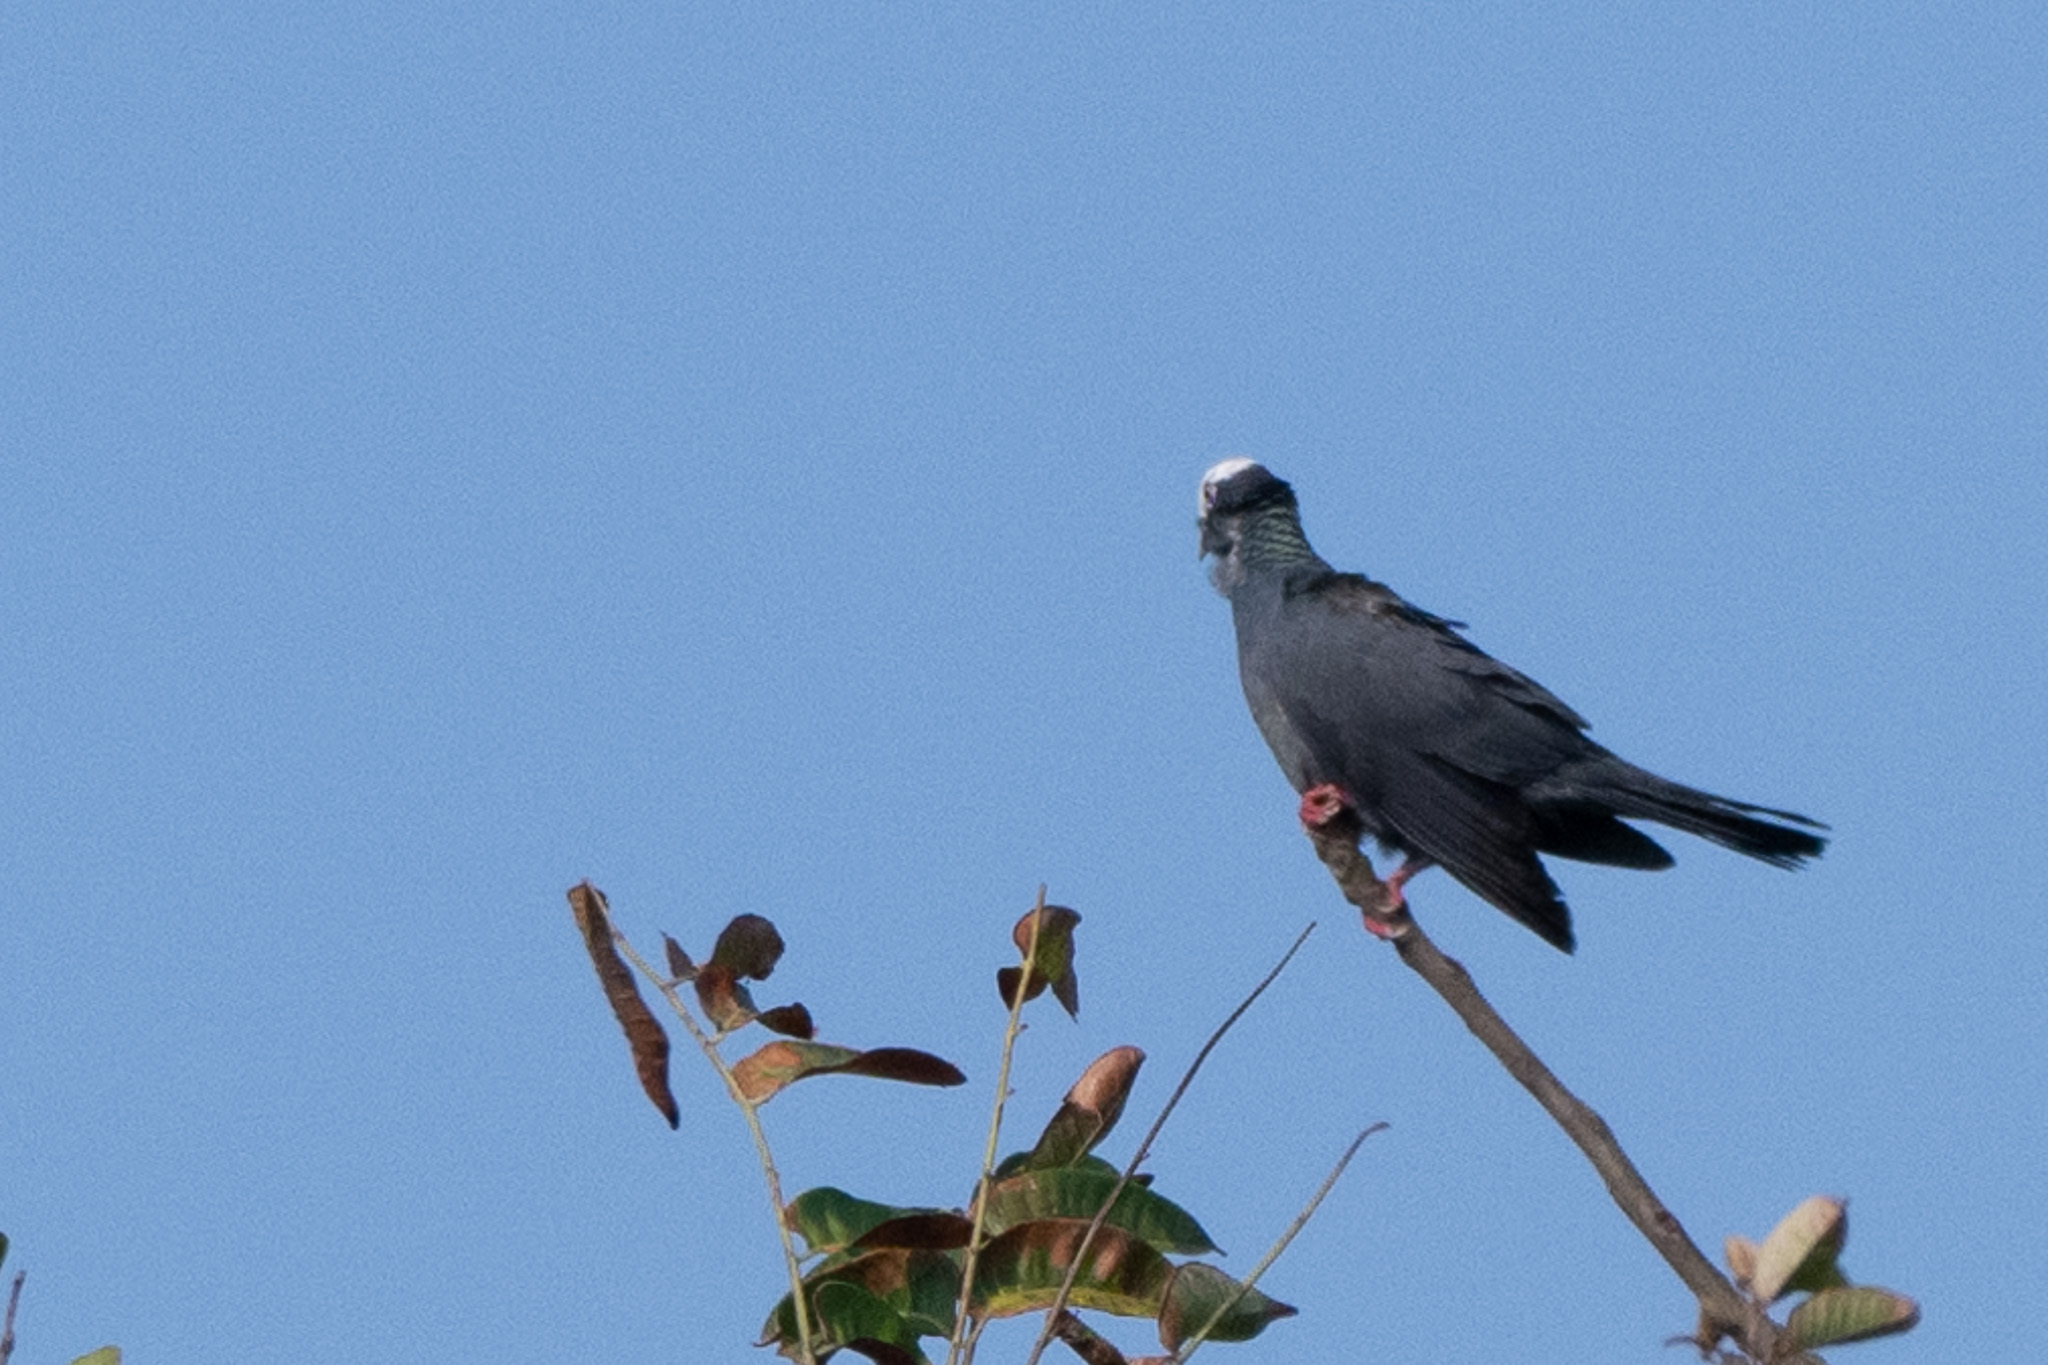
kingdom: Animalia
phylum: Chordata
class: Aves
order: Columbiformes
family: Columbidae
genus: Patagioenas
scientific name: Patagioenas leucocephala
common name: White-crowned pigeon
